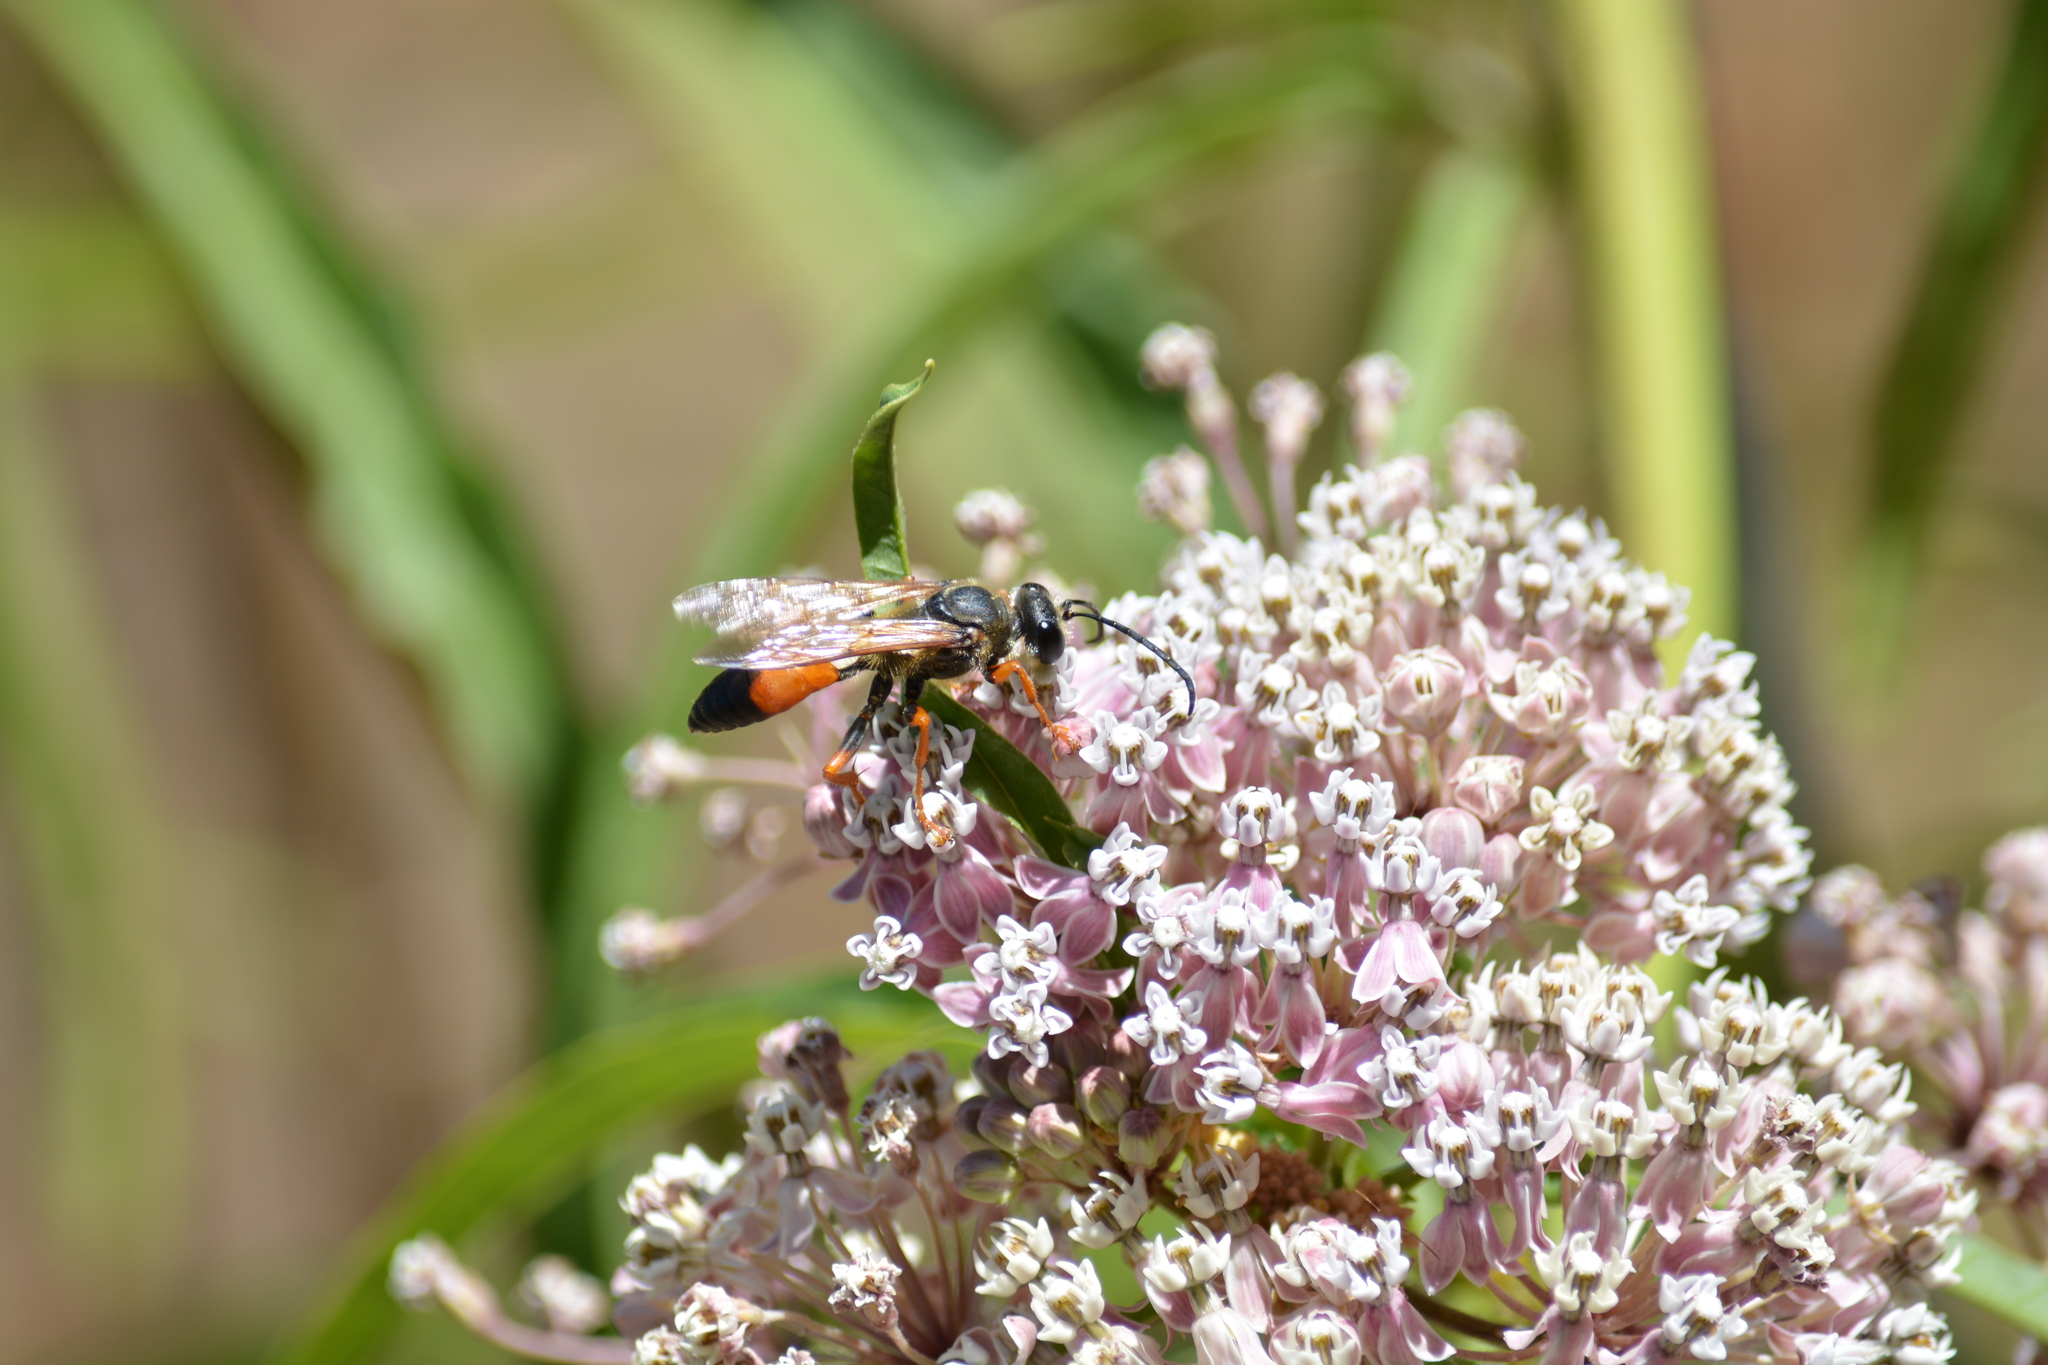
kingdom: Animalia
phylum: Arthropoda
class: Insecta
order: Hymenoptera
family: Sphecidae
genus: Sphex
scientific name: Sphex ichneumoneus
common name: Great golden digger wasp
